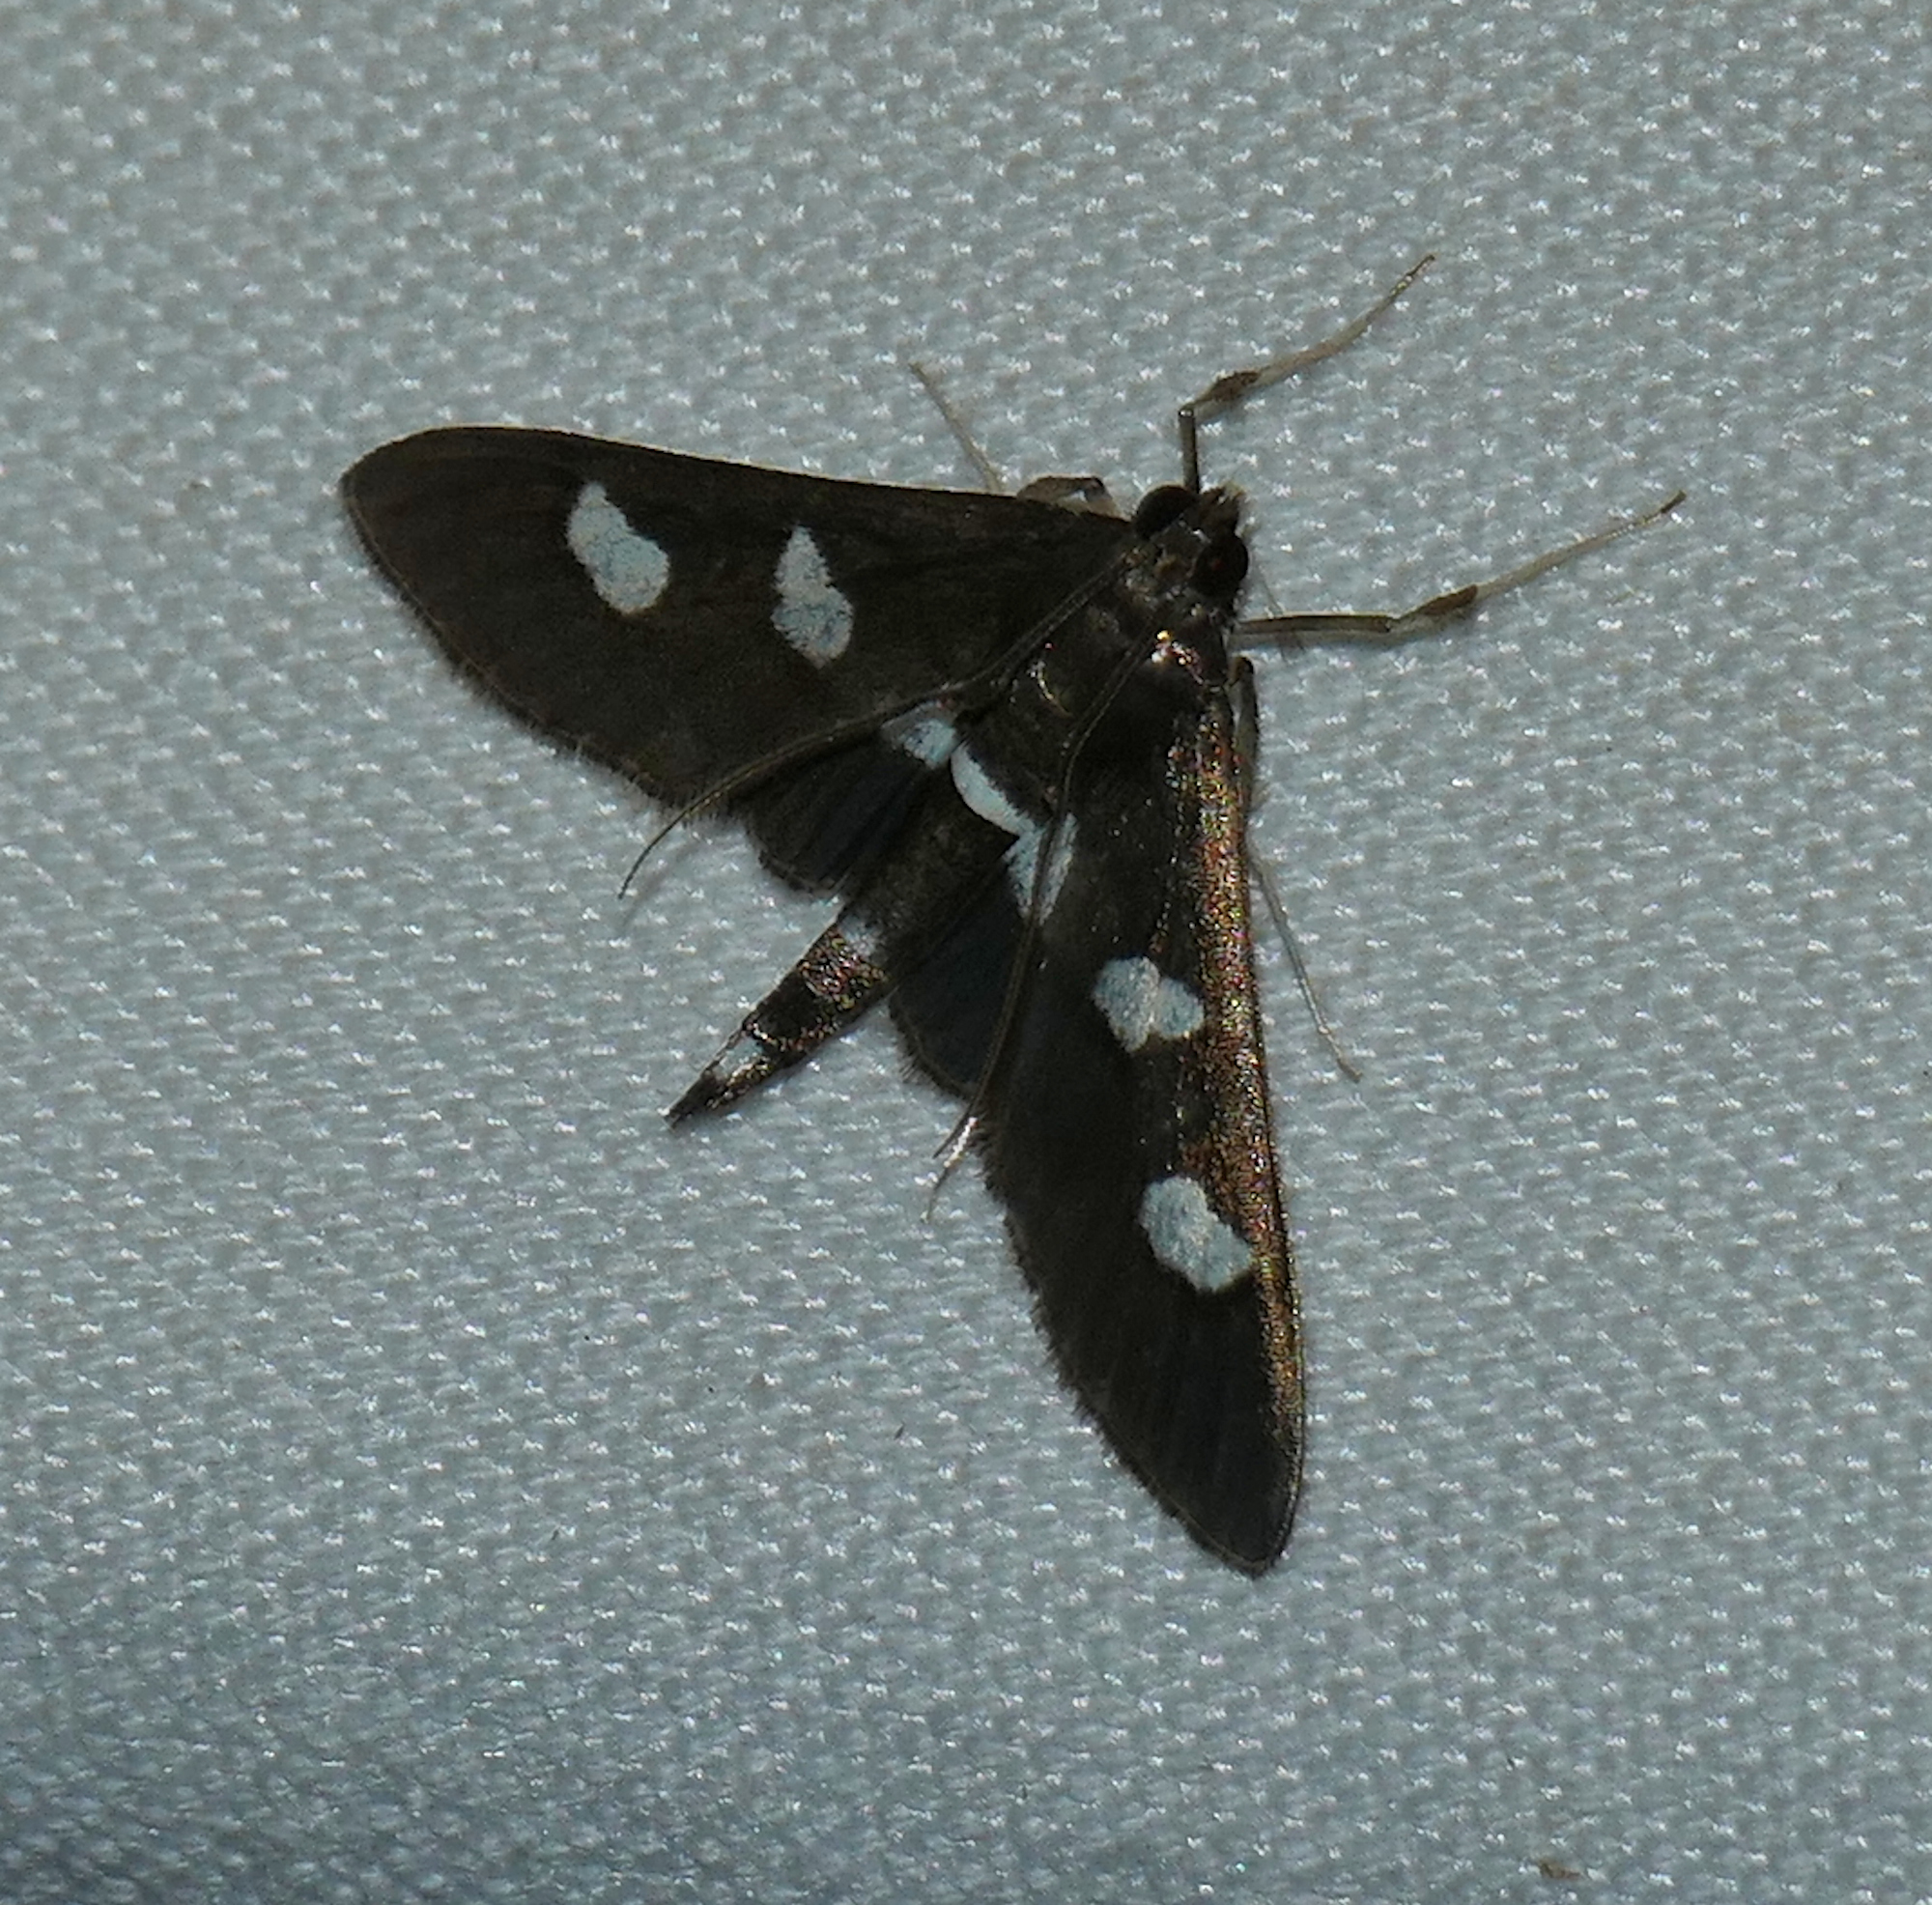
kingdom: Animalia
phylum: Arthropoda
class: Insecta
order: Lepidoptera
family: Crambidae
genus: Desmia
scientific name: Desmia funeralis
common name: Grape leaf folder moth
